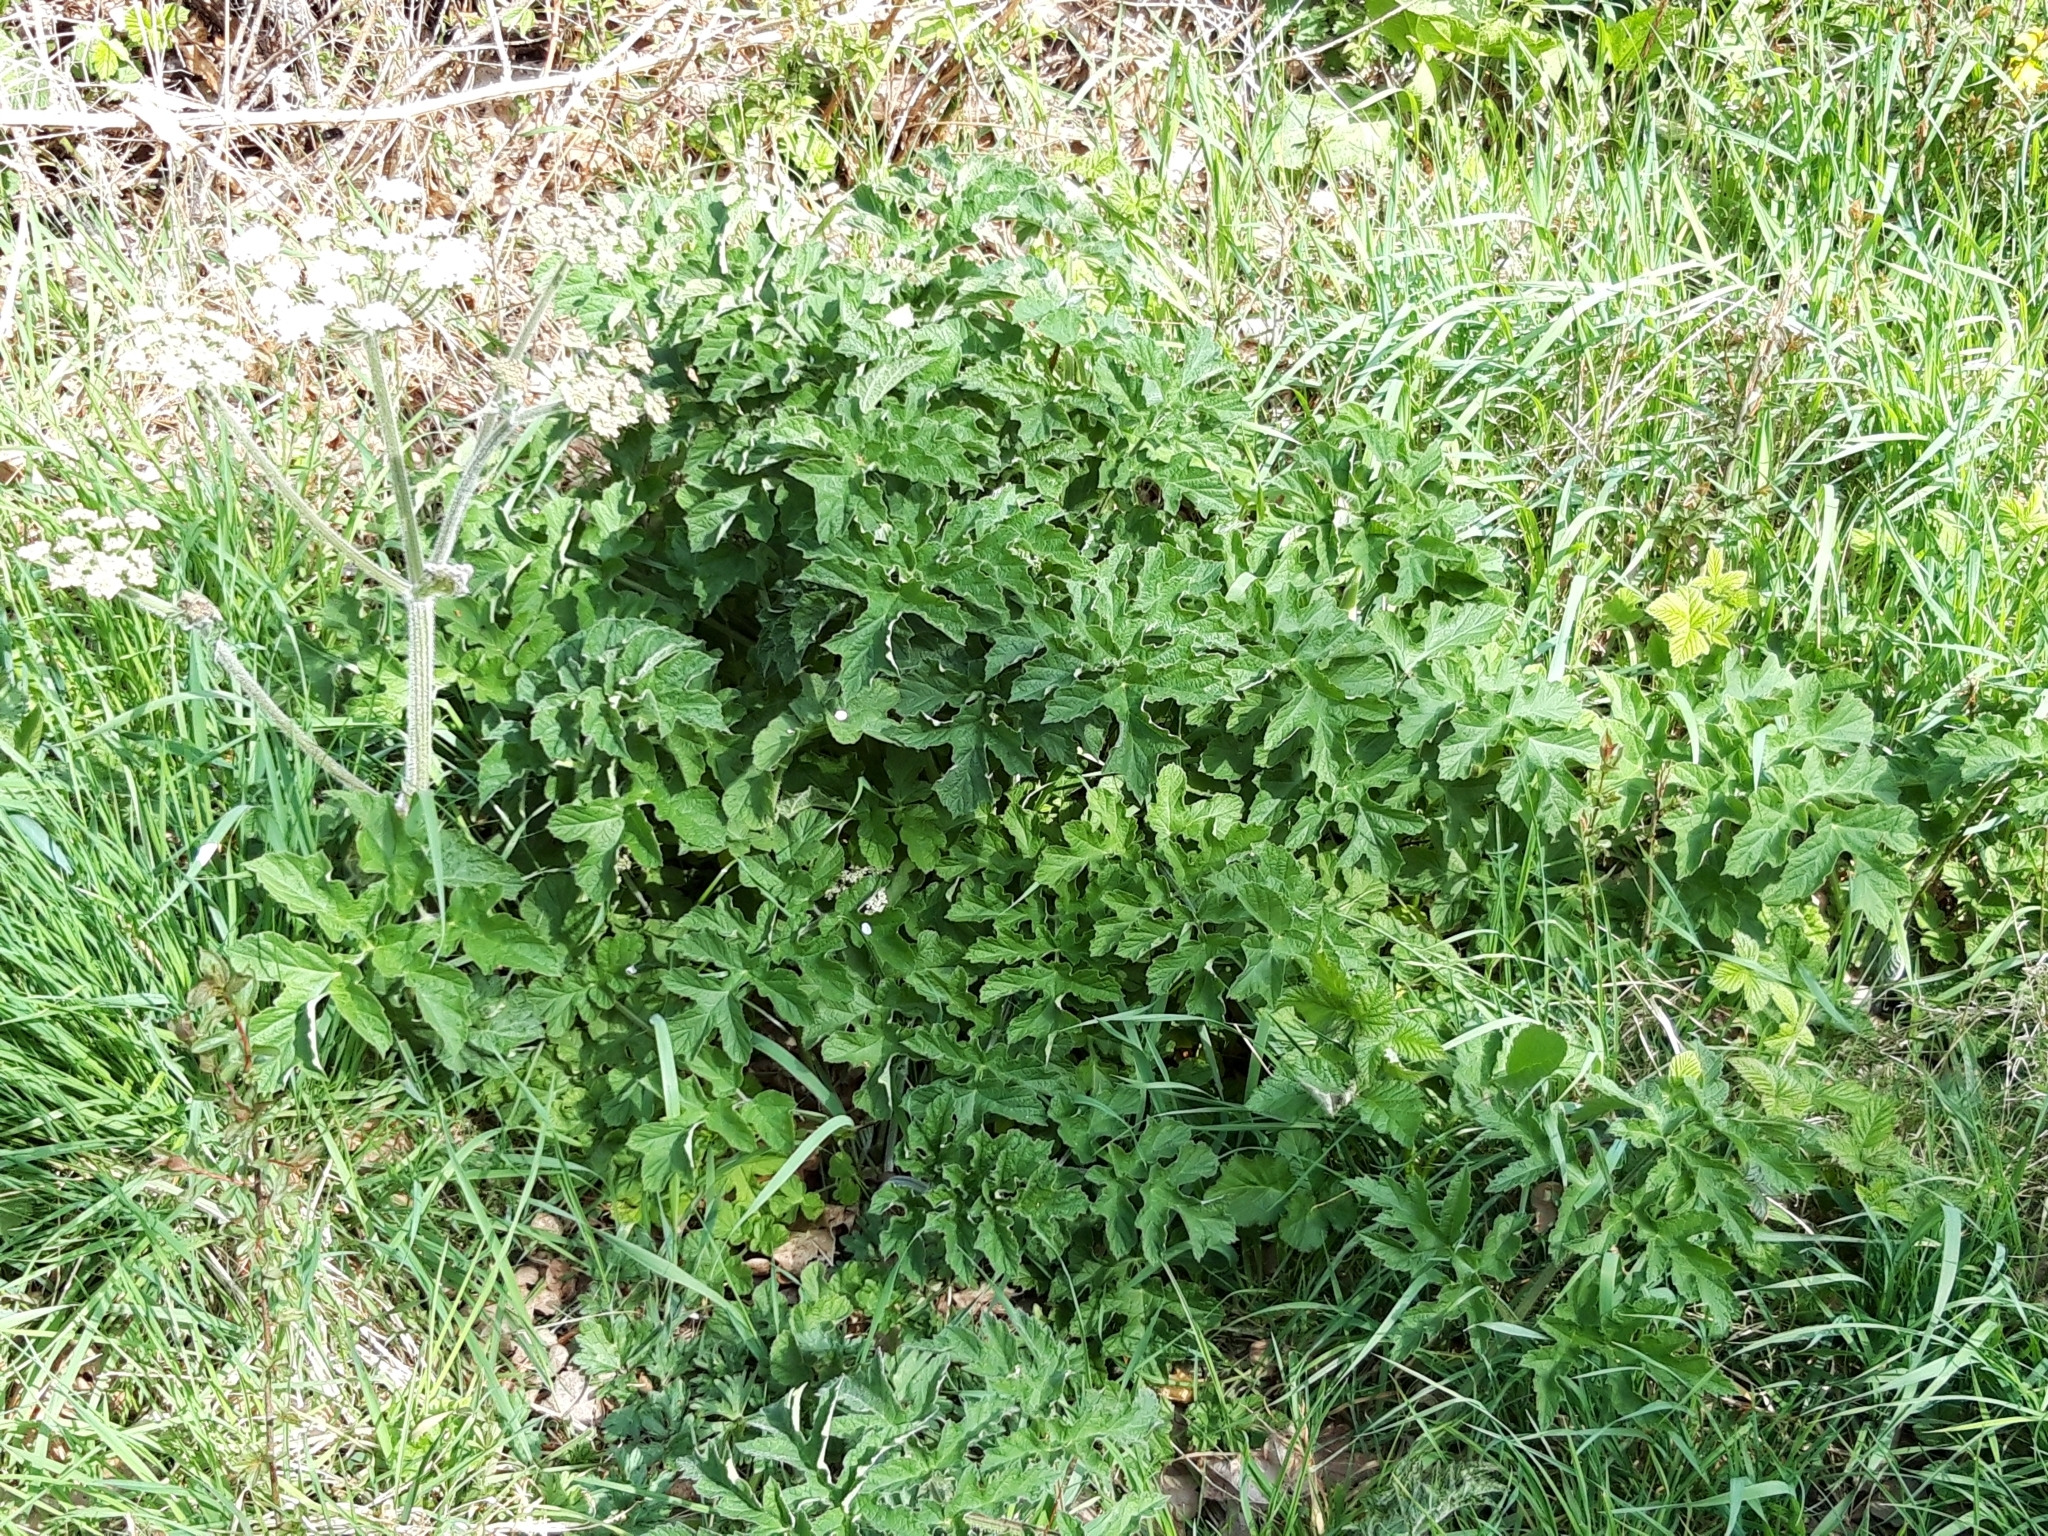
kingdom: Plantae
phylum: Tracheophyta
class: Magnoliopsida
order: Apiales
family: Apiaceae
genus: Heracleum
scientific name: Heracleum sphondylium
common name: Hogweed
